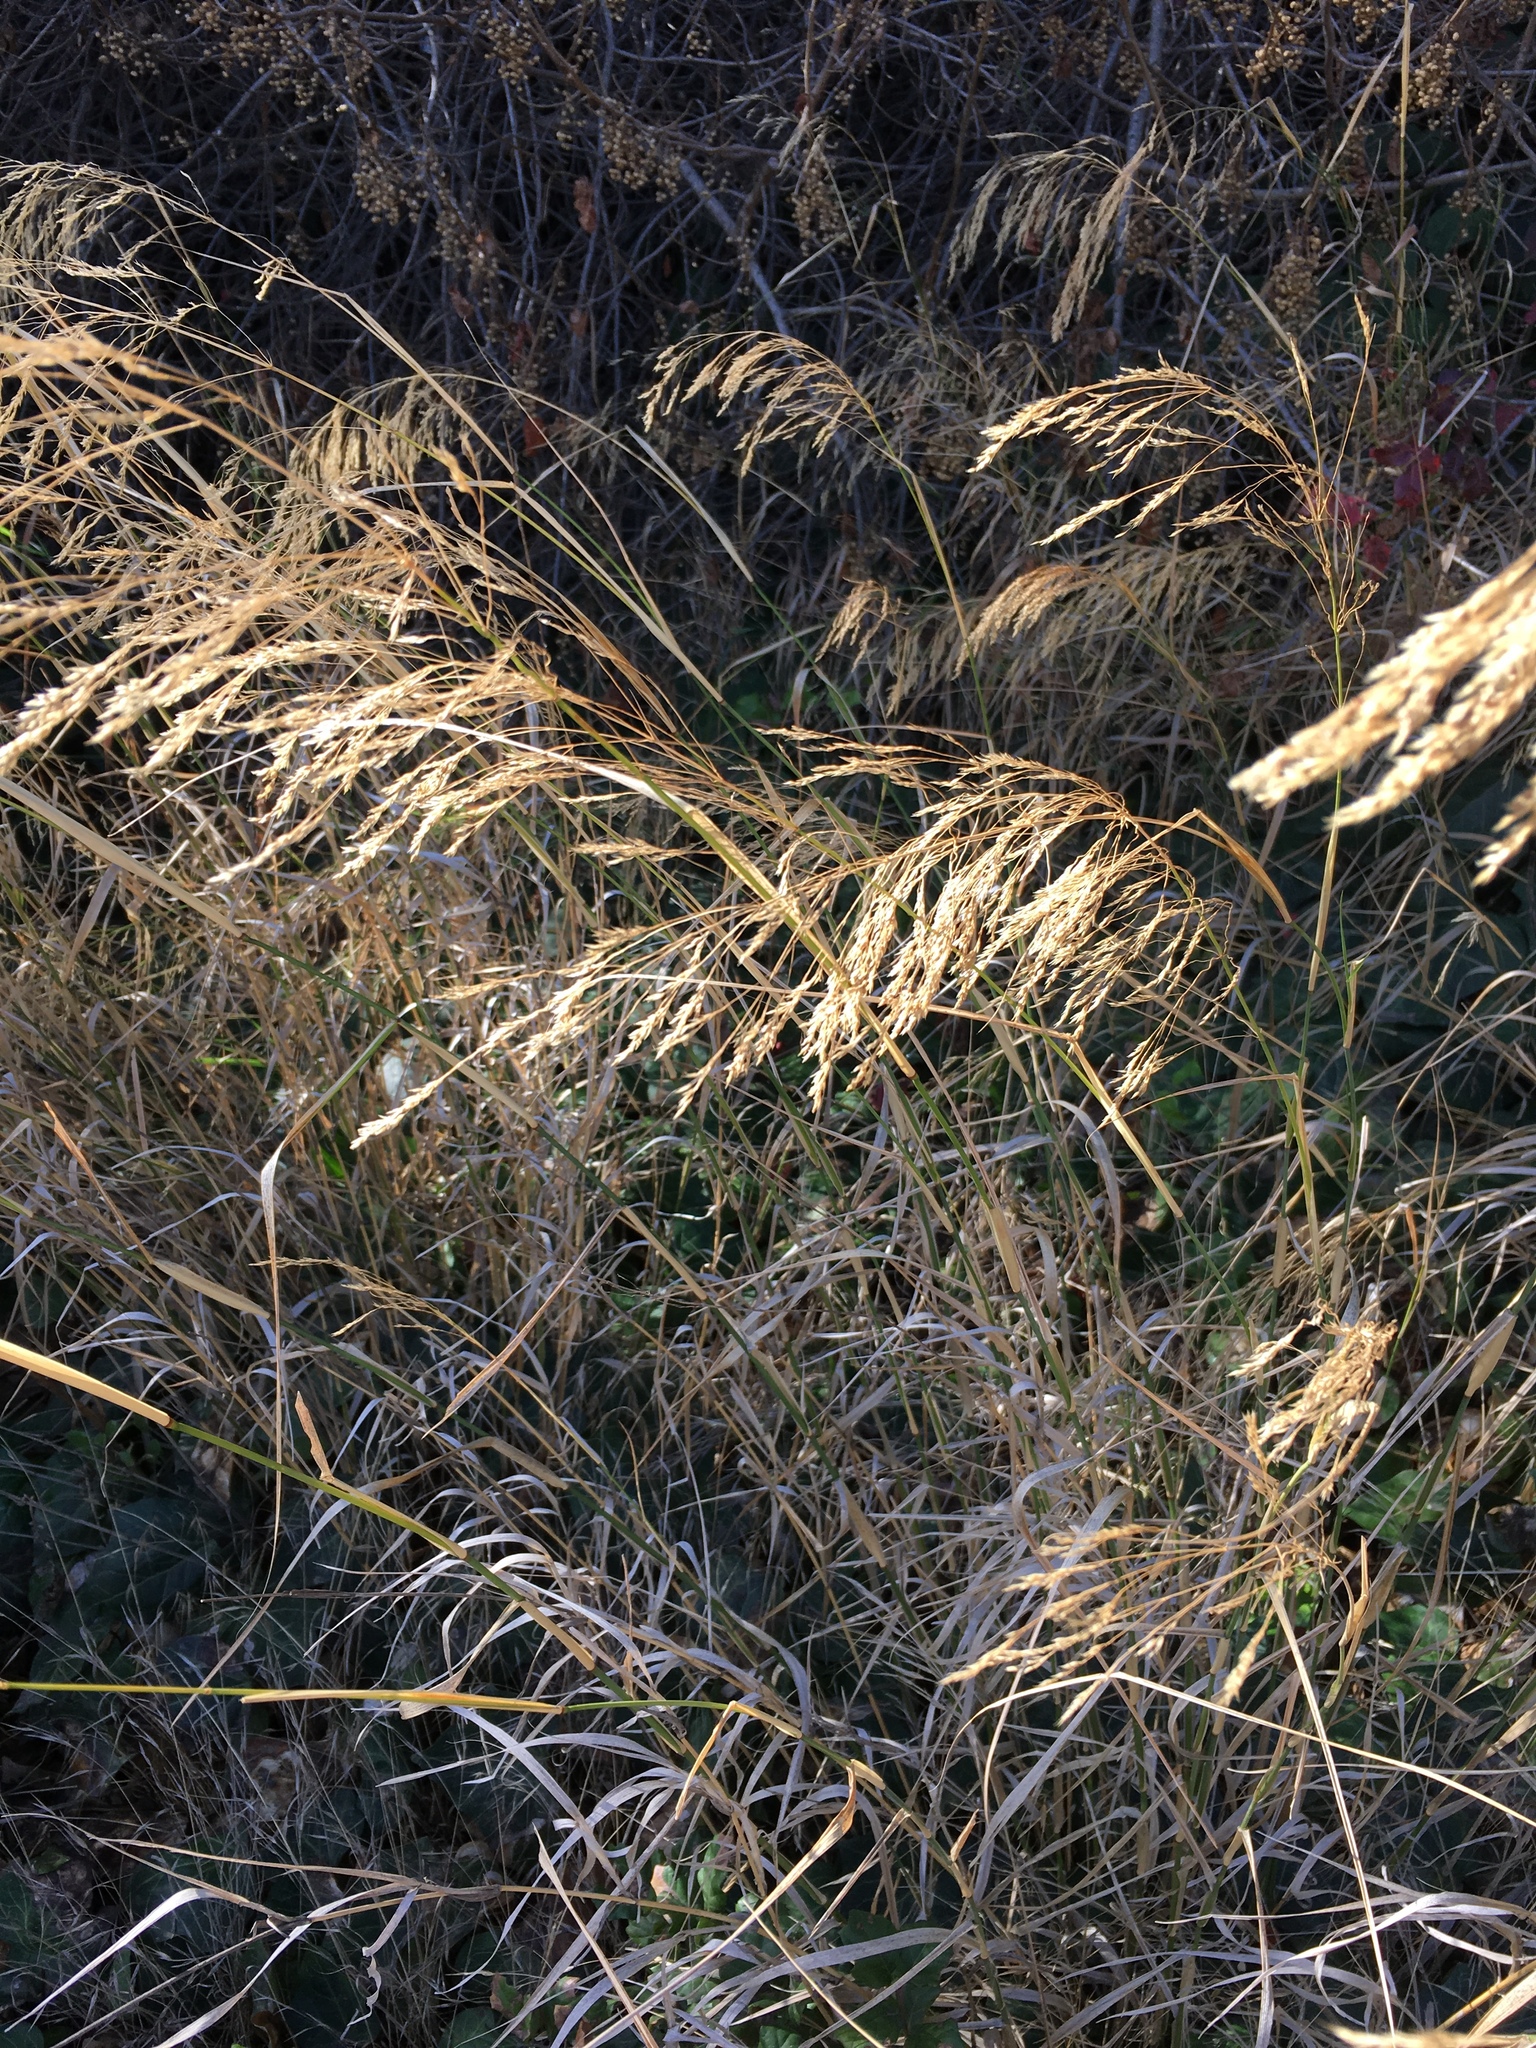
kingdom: Plantae
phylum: Tracheophyta
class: Liliopsida
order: Poales
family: Poaceae
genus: Oloptum
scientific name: Oloptum miliaceum
